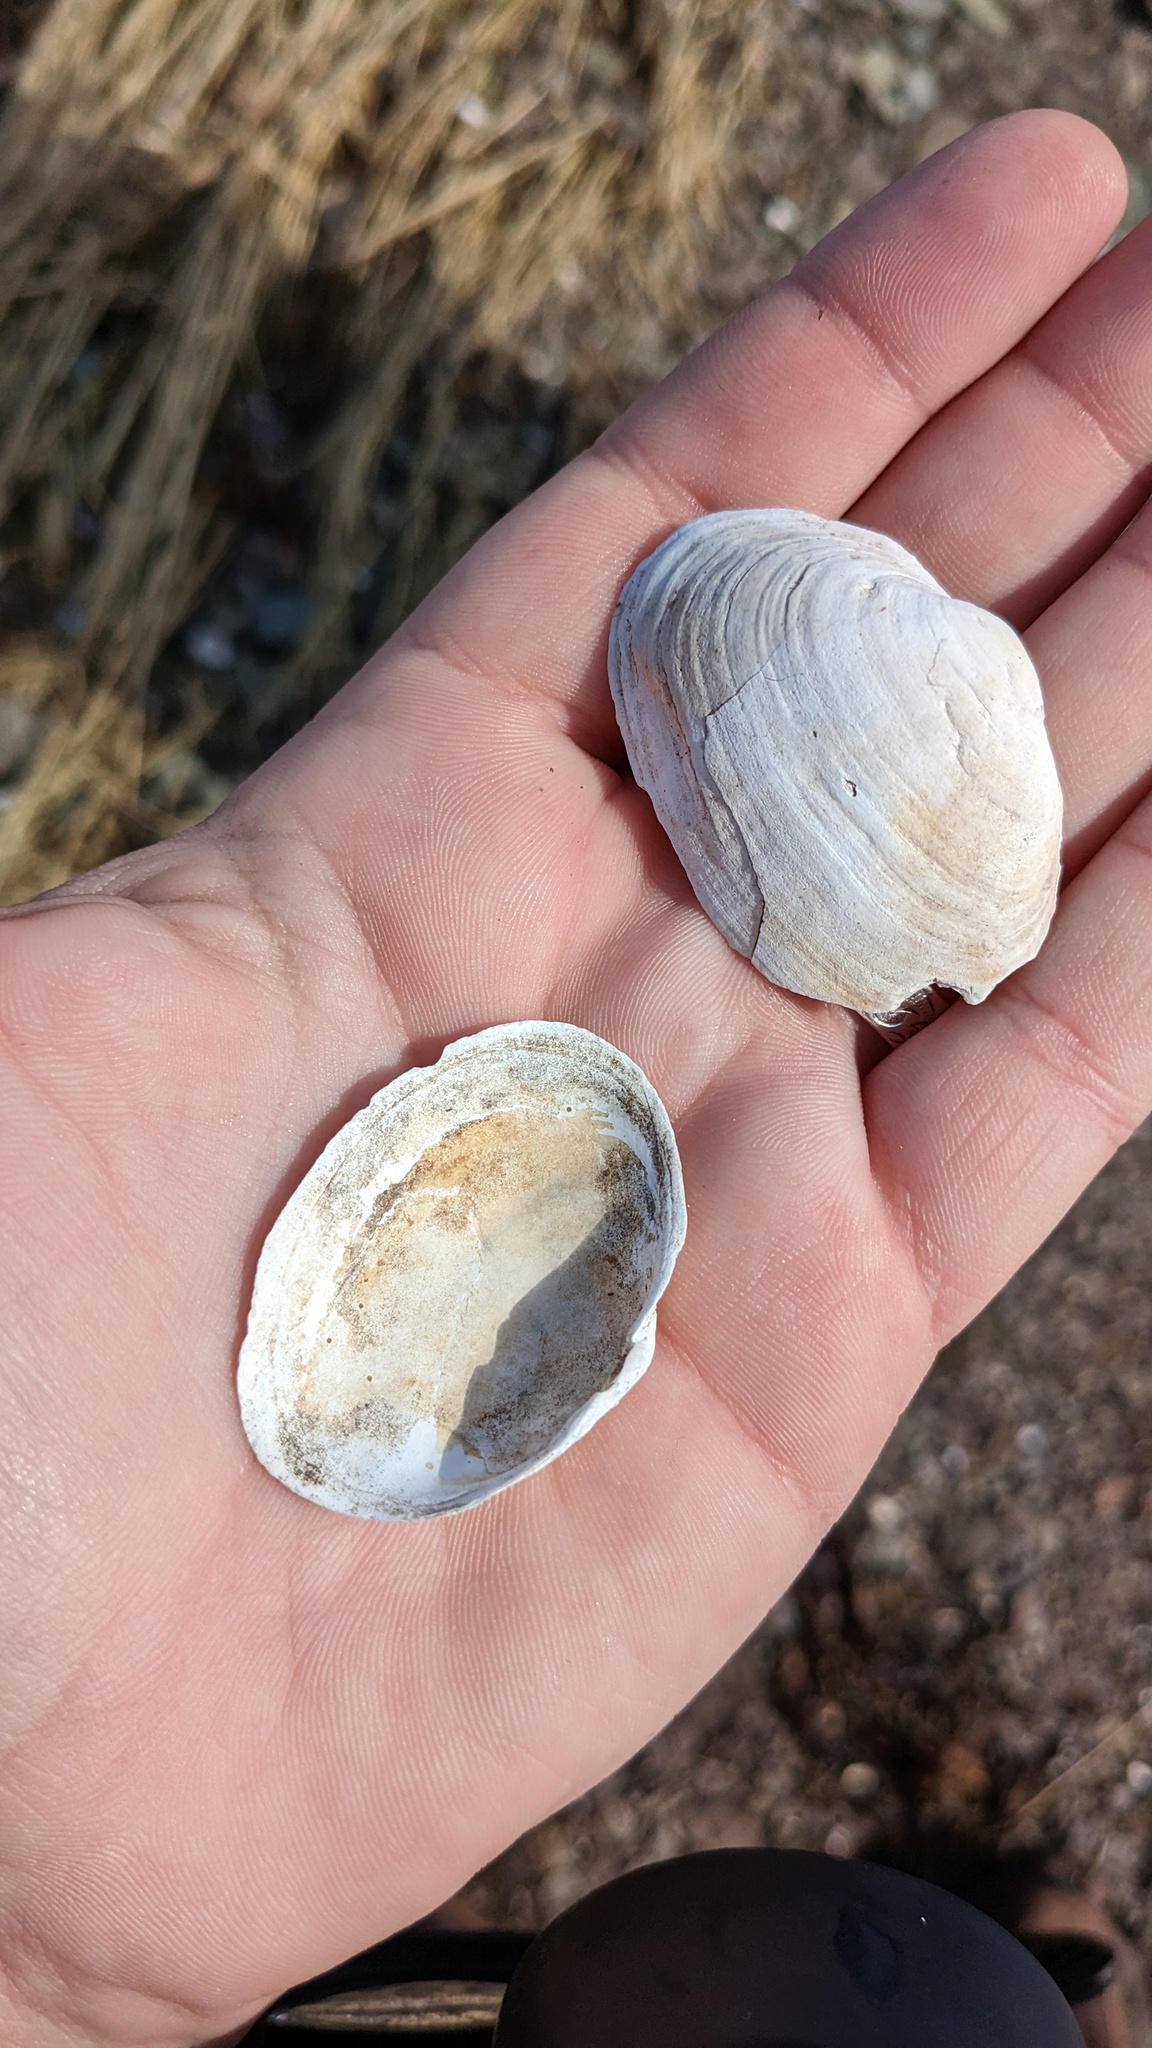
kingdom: Animalia
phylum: Mollusca
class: Bivalvia
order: Myida
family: Myidae
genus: Mya
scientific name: Mya arenaria
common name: Soft-shelled clam
